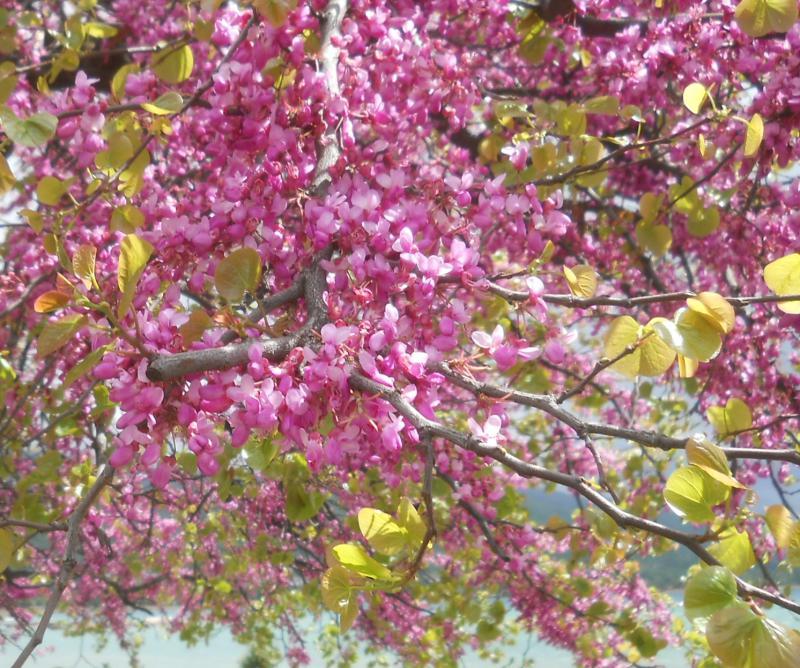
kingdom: Plantae
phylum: Tracheophyta
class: Magnoliopsida
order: Fabales
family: Fabaceae
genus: Cercis
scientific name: Cercis siliquastrum
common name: Judas tree
